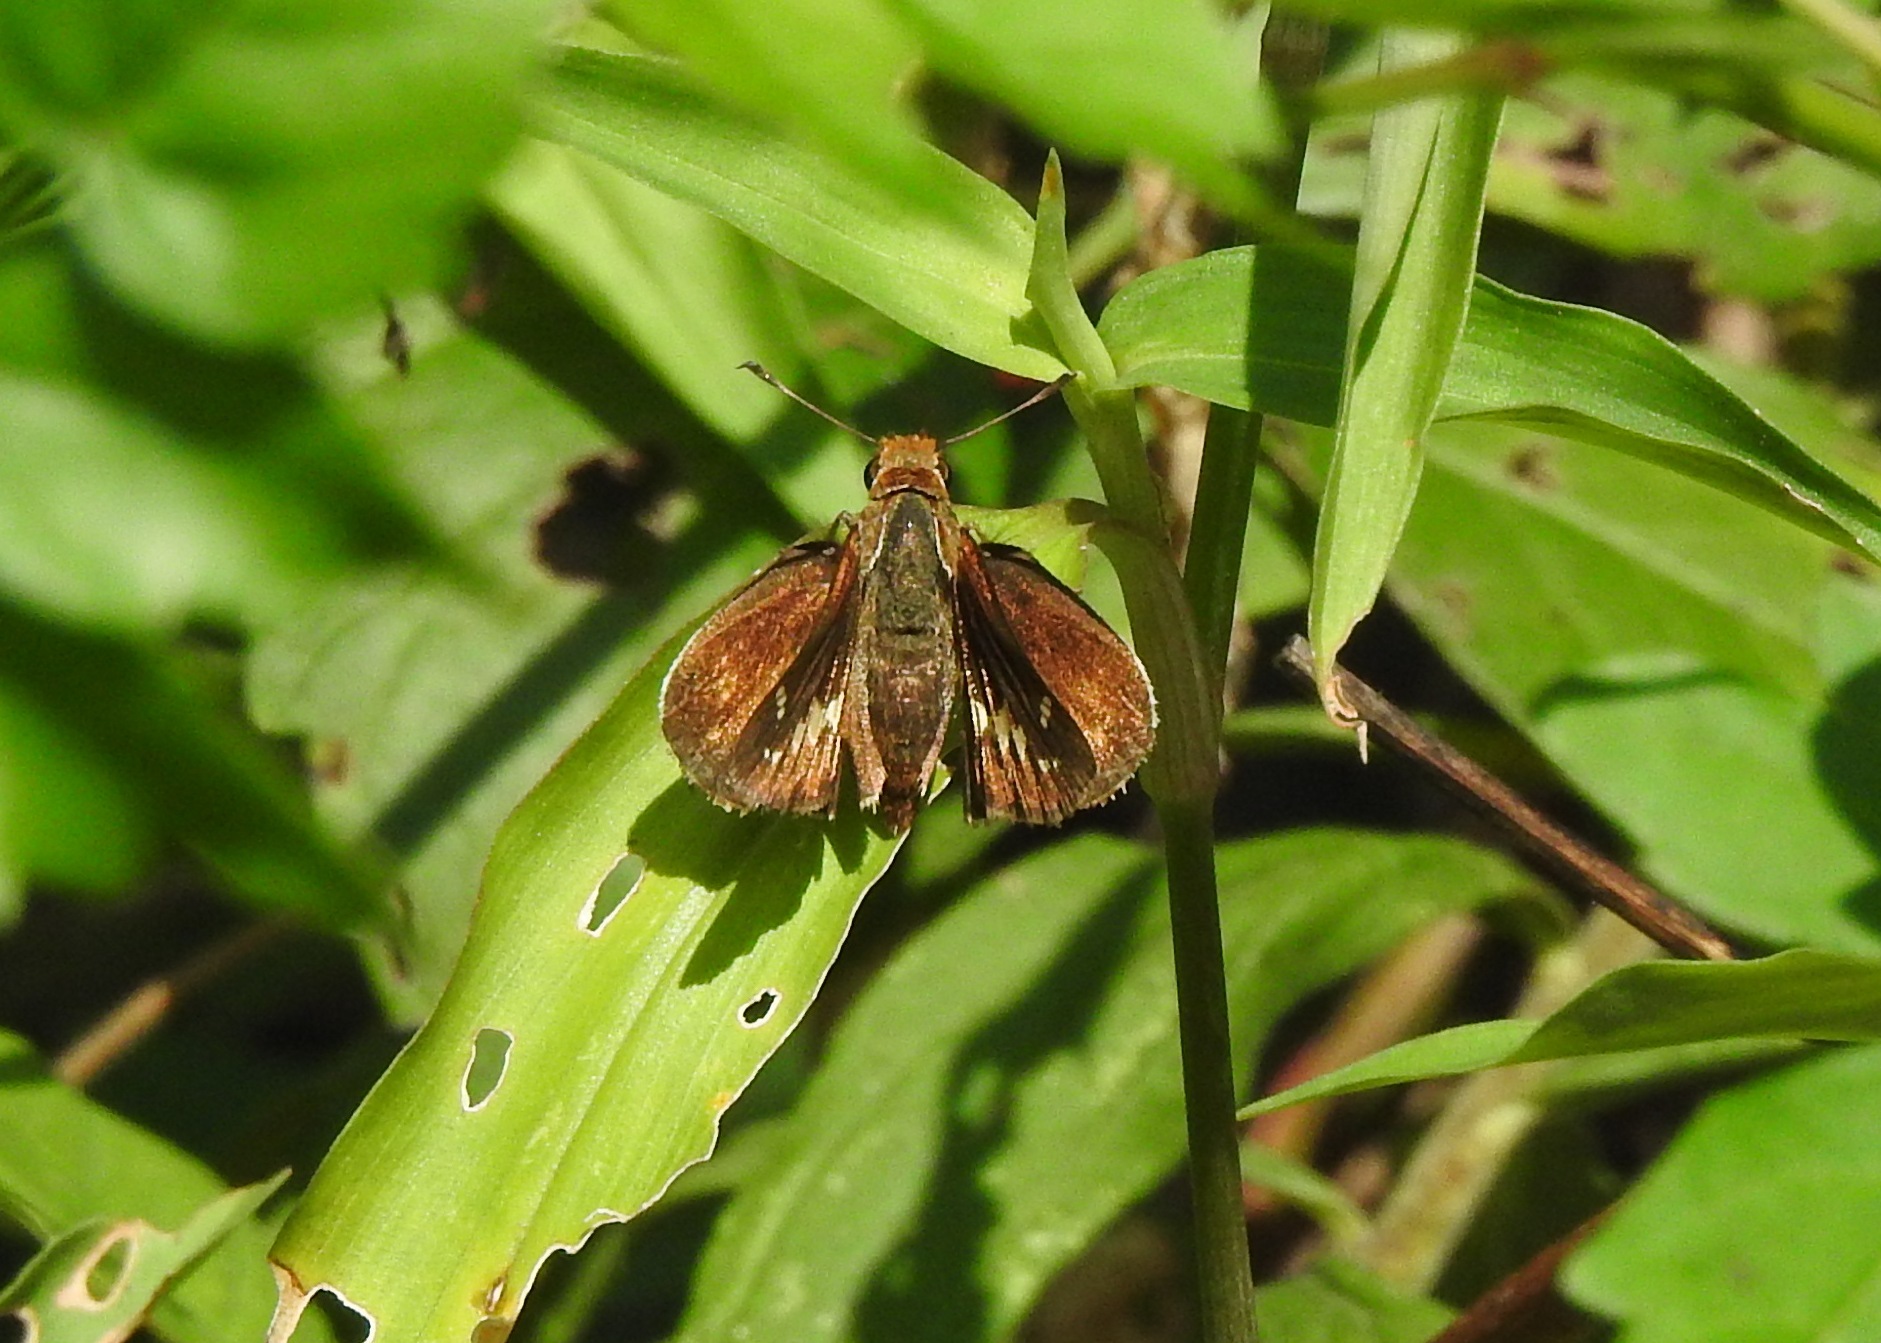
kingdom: Animalia
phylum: Arthropoda
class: Insecta
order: Lepidoptera
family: Hesperiidae
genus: Lon
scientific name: Lon zabulon
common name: Zabulon skipper
